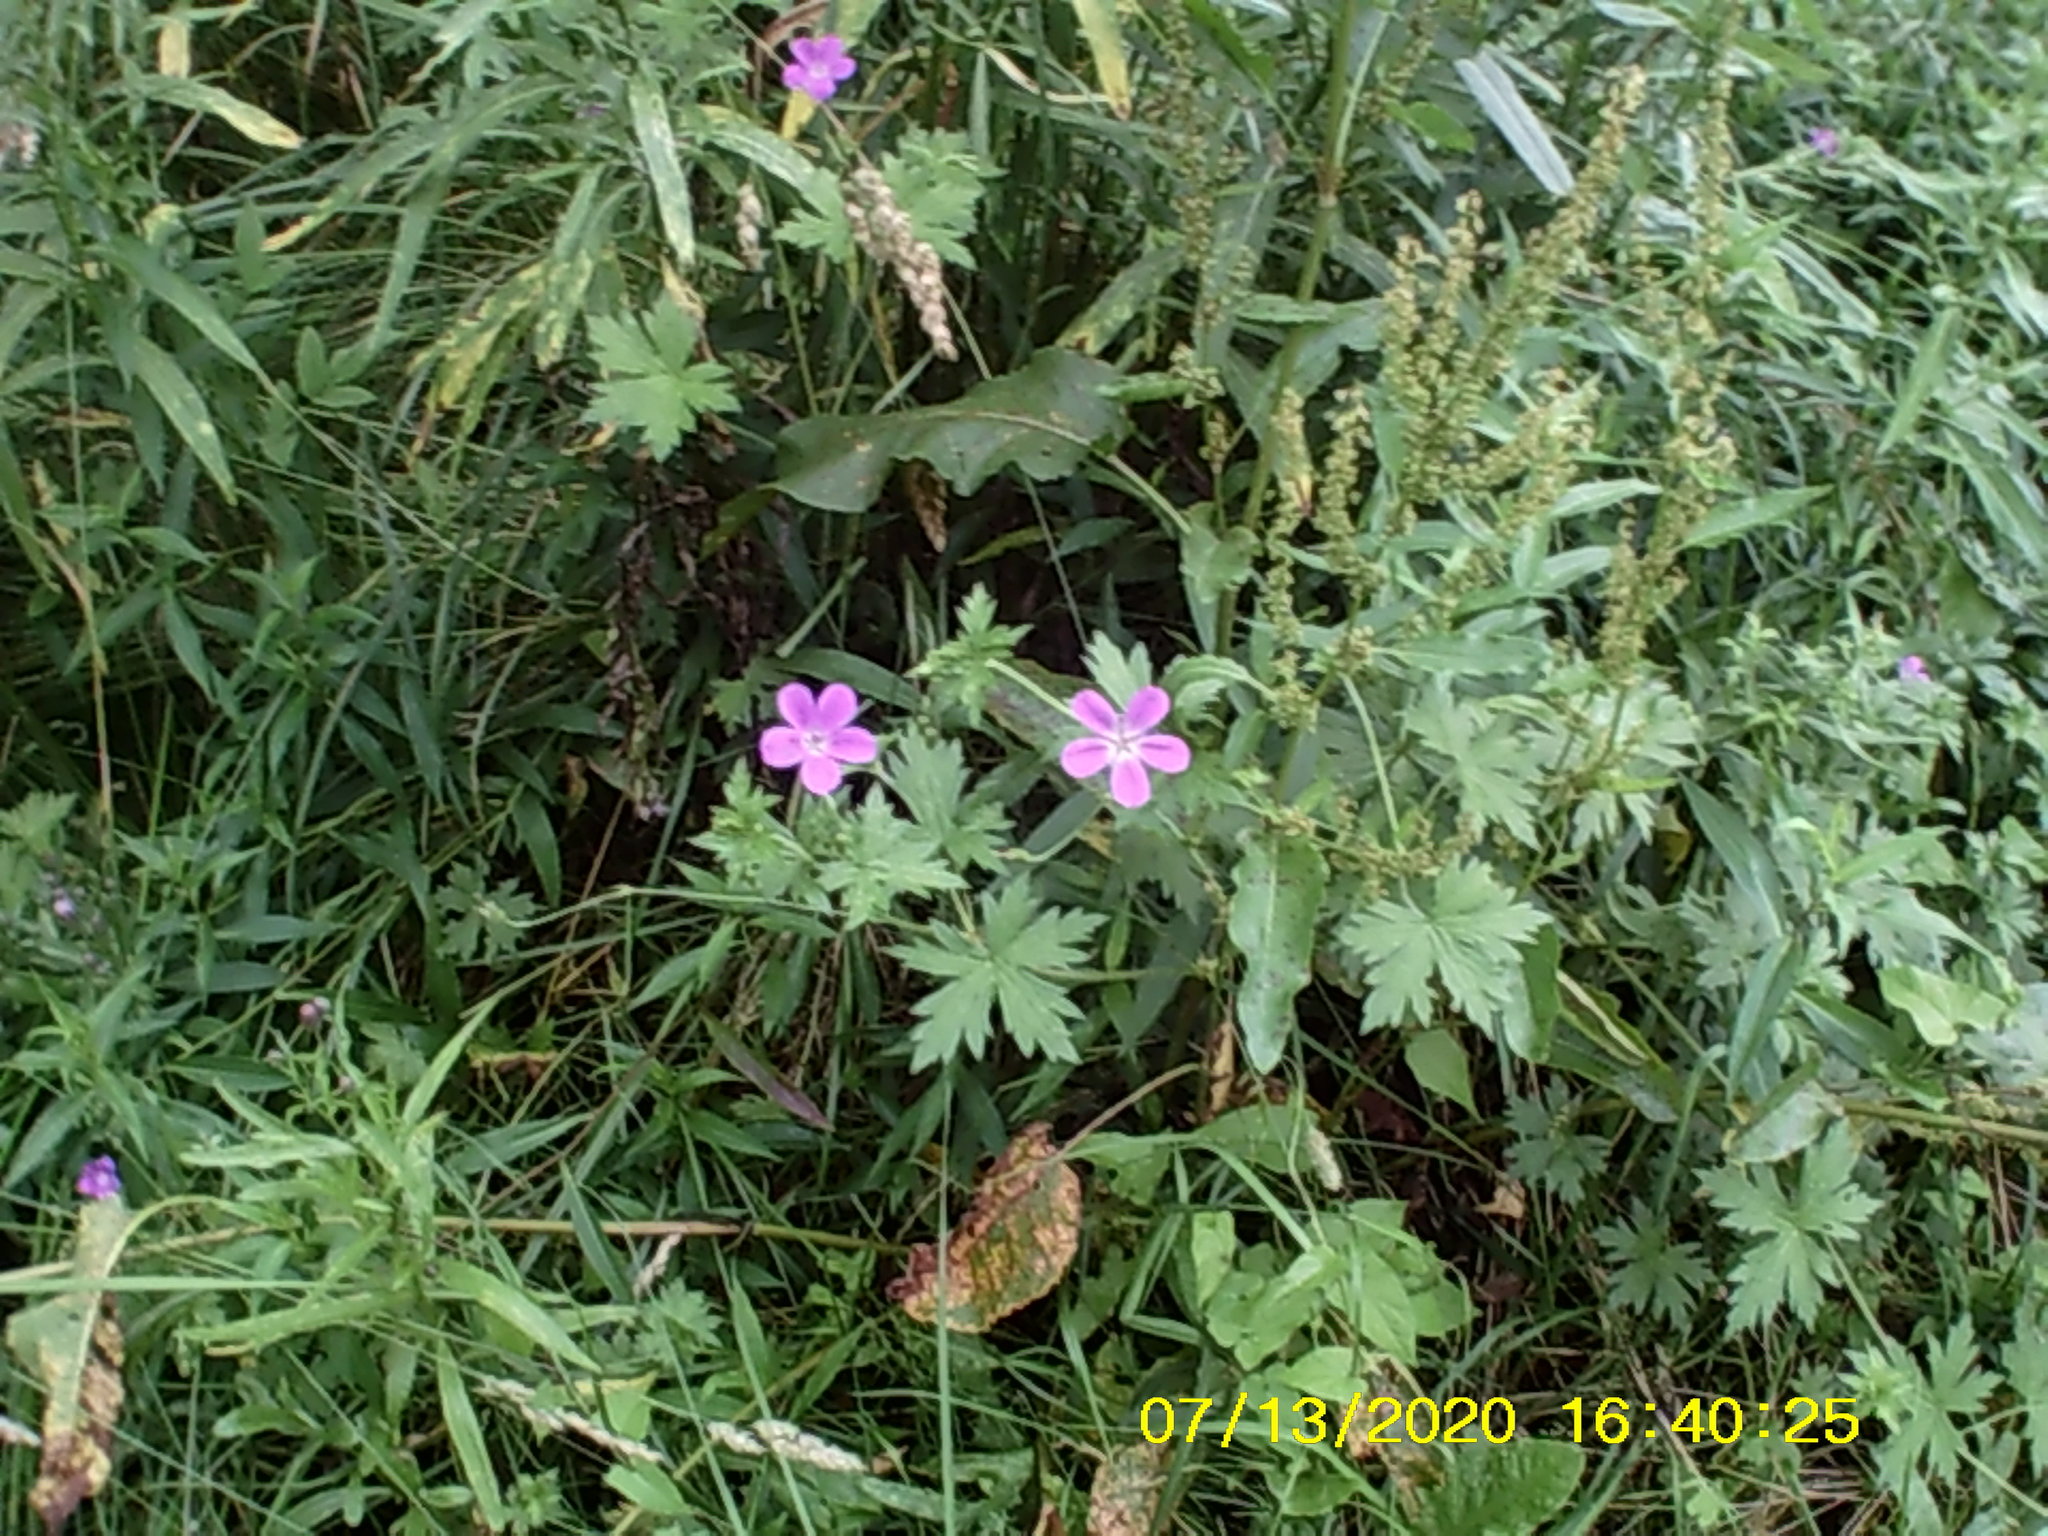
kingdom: Plantae
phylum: Tracheophyta
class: Magnoliopsida
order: Geraniales
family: Geraniaceae
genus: Geranium
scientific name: Geranium palustre
